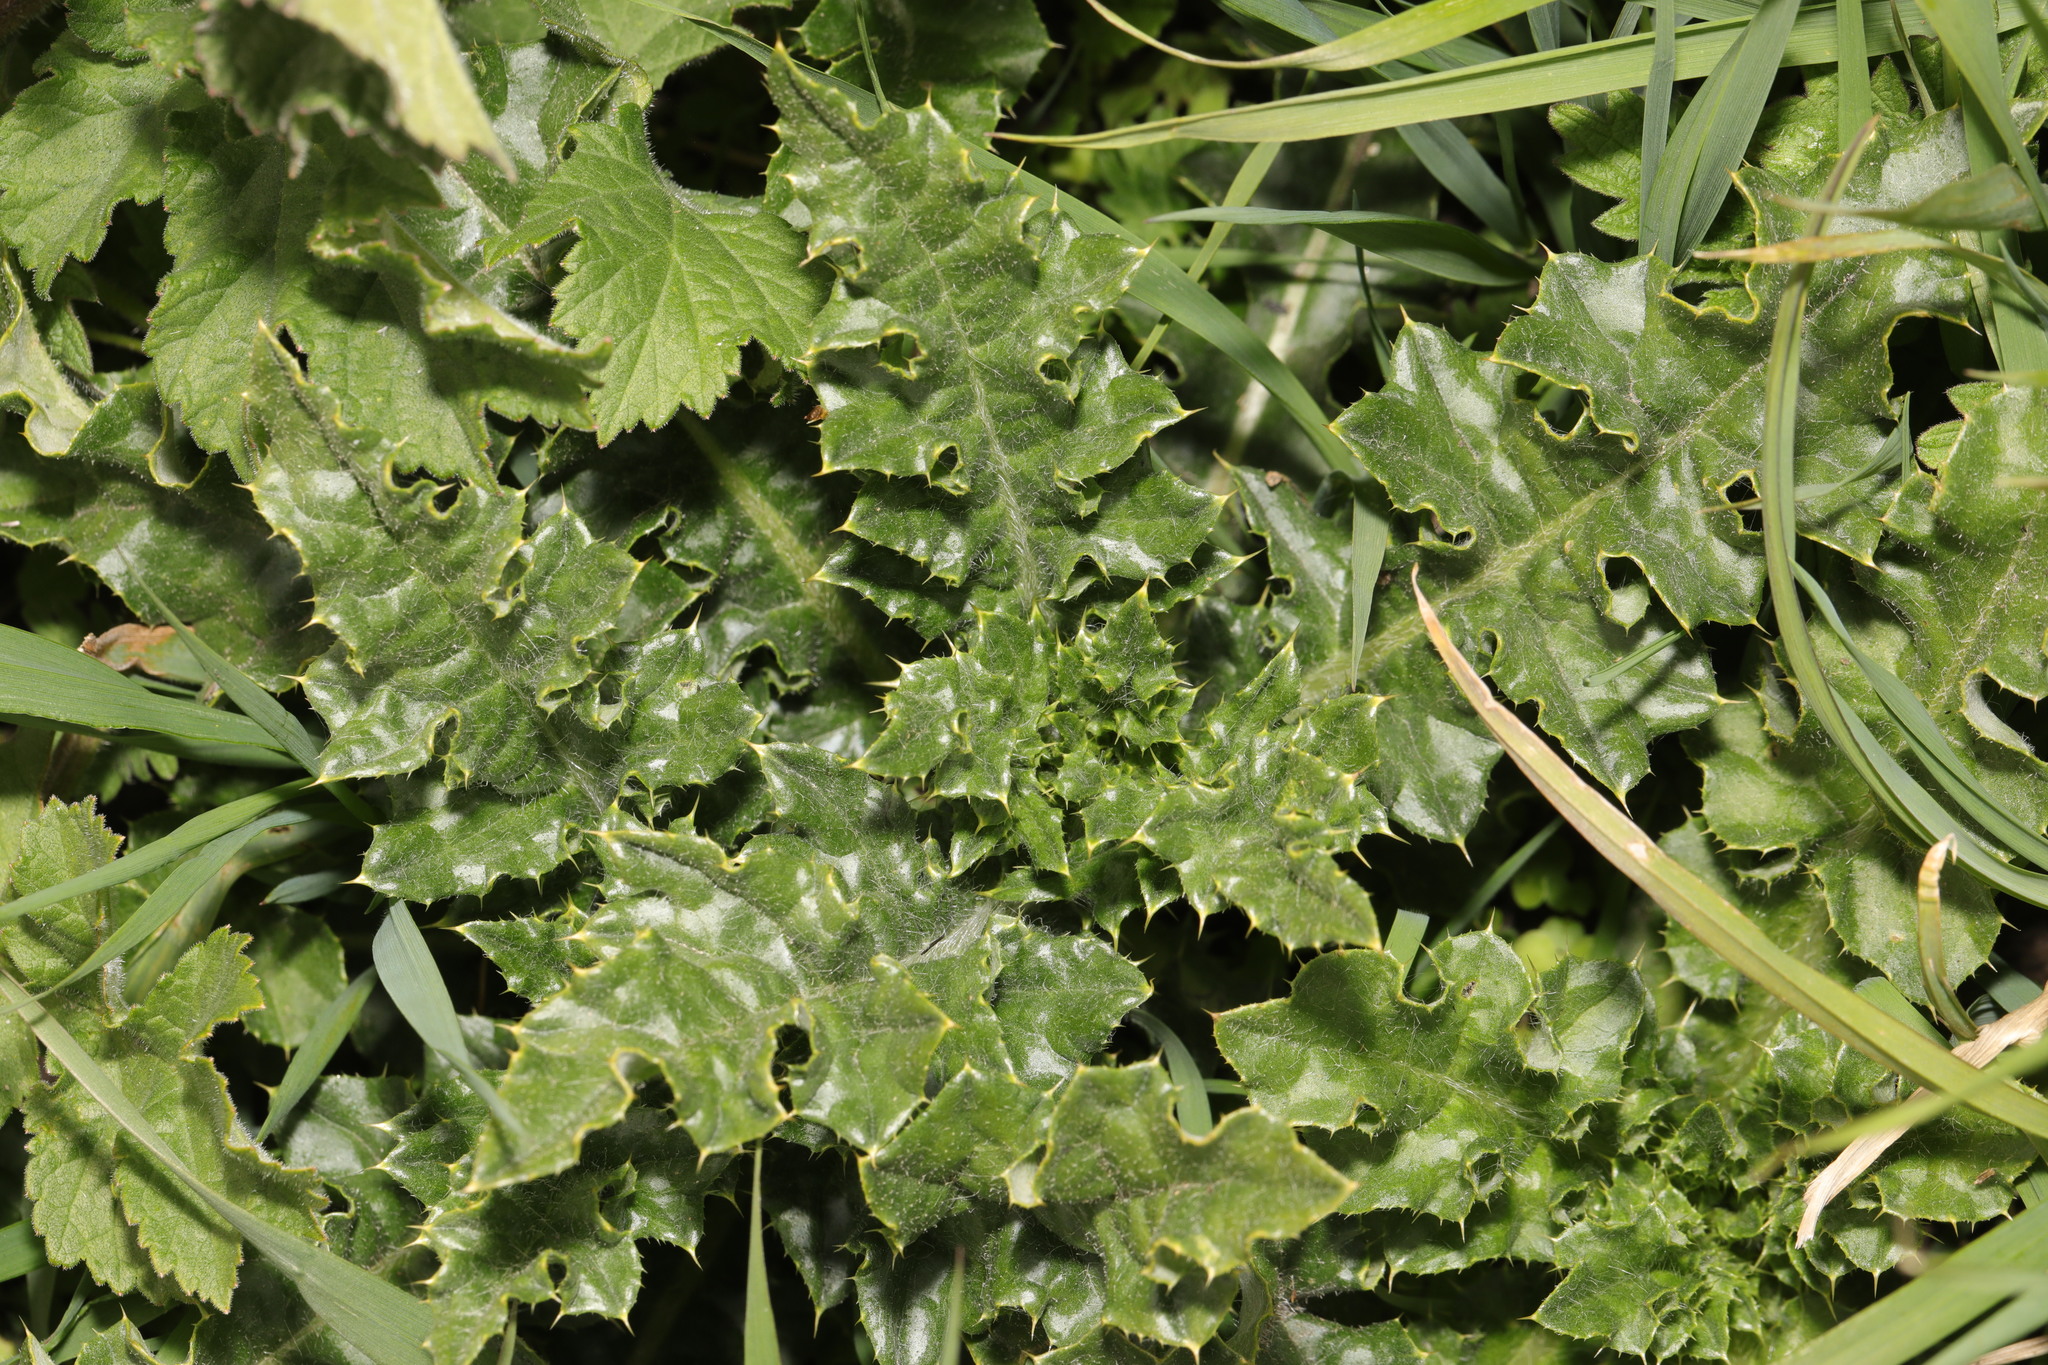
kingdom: Plantae
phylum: Tracheophyta
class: Magnoliopsida
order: Asterales
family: Asteraceae
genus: Cirsium
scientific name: Cirsium arvense
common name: Creeping thistle
